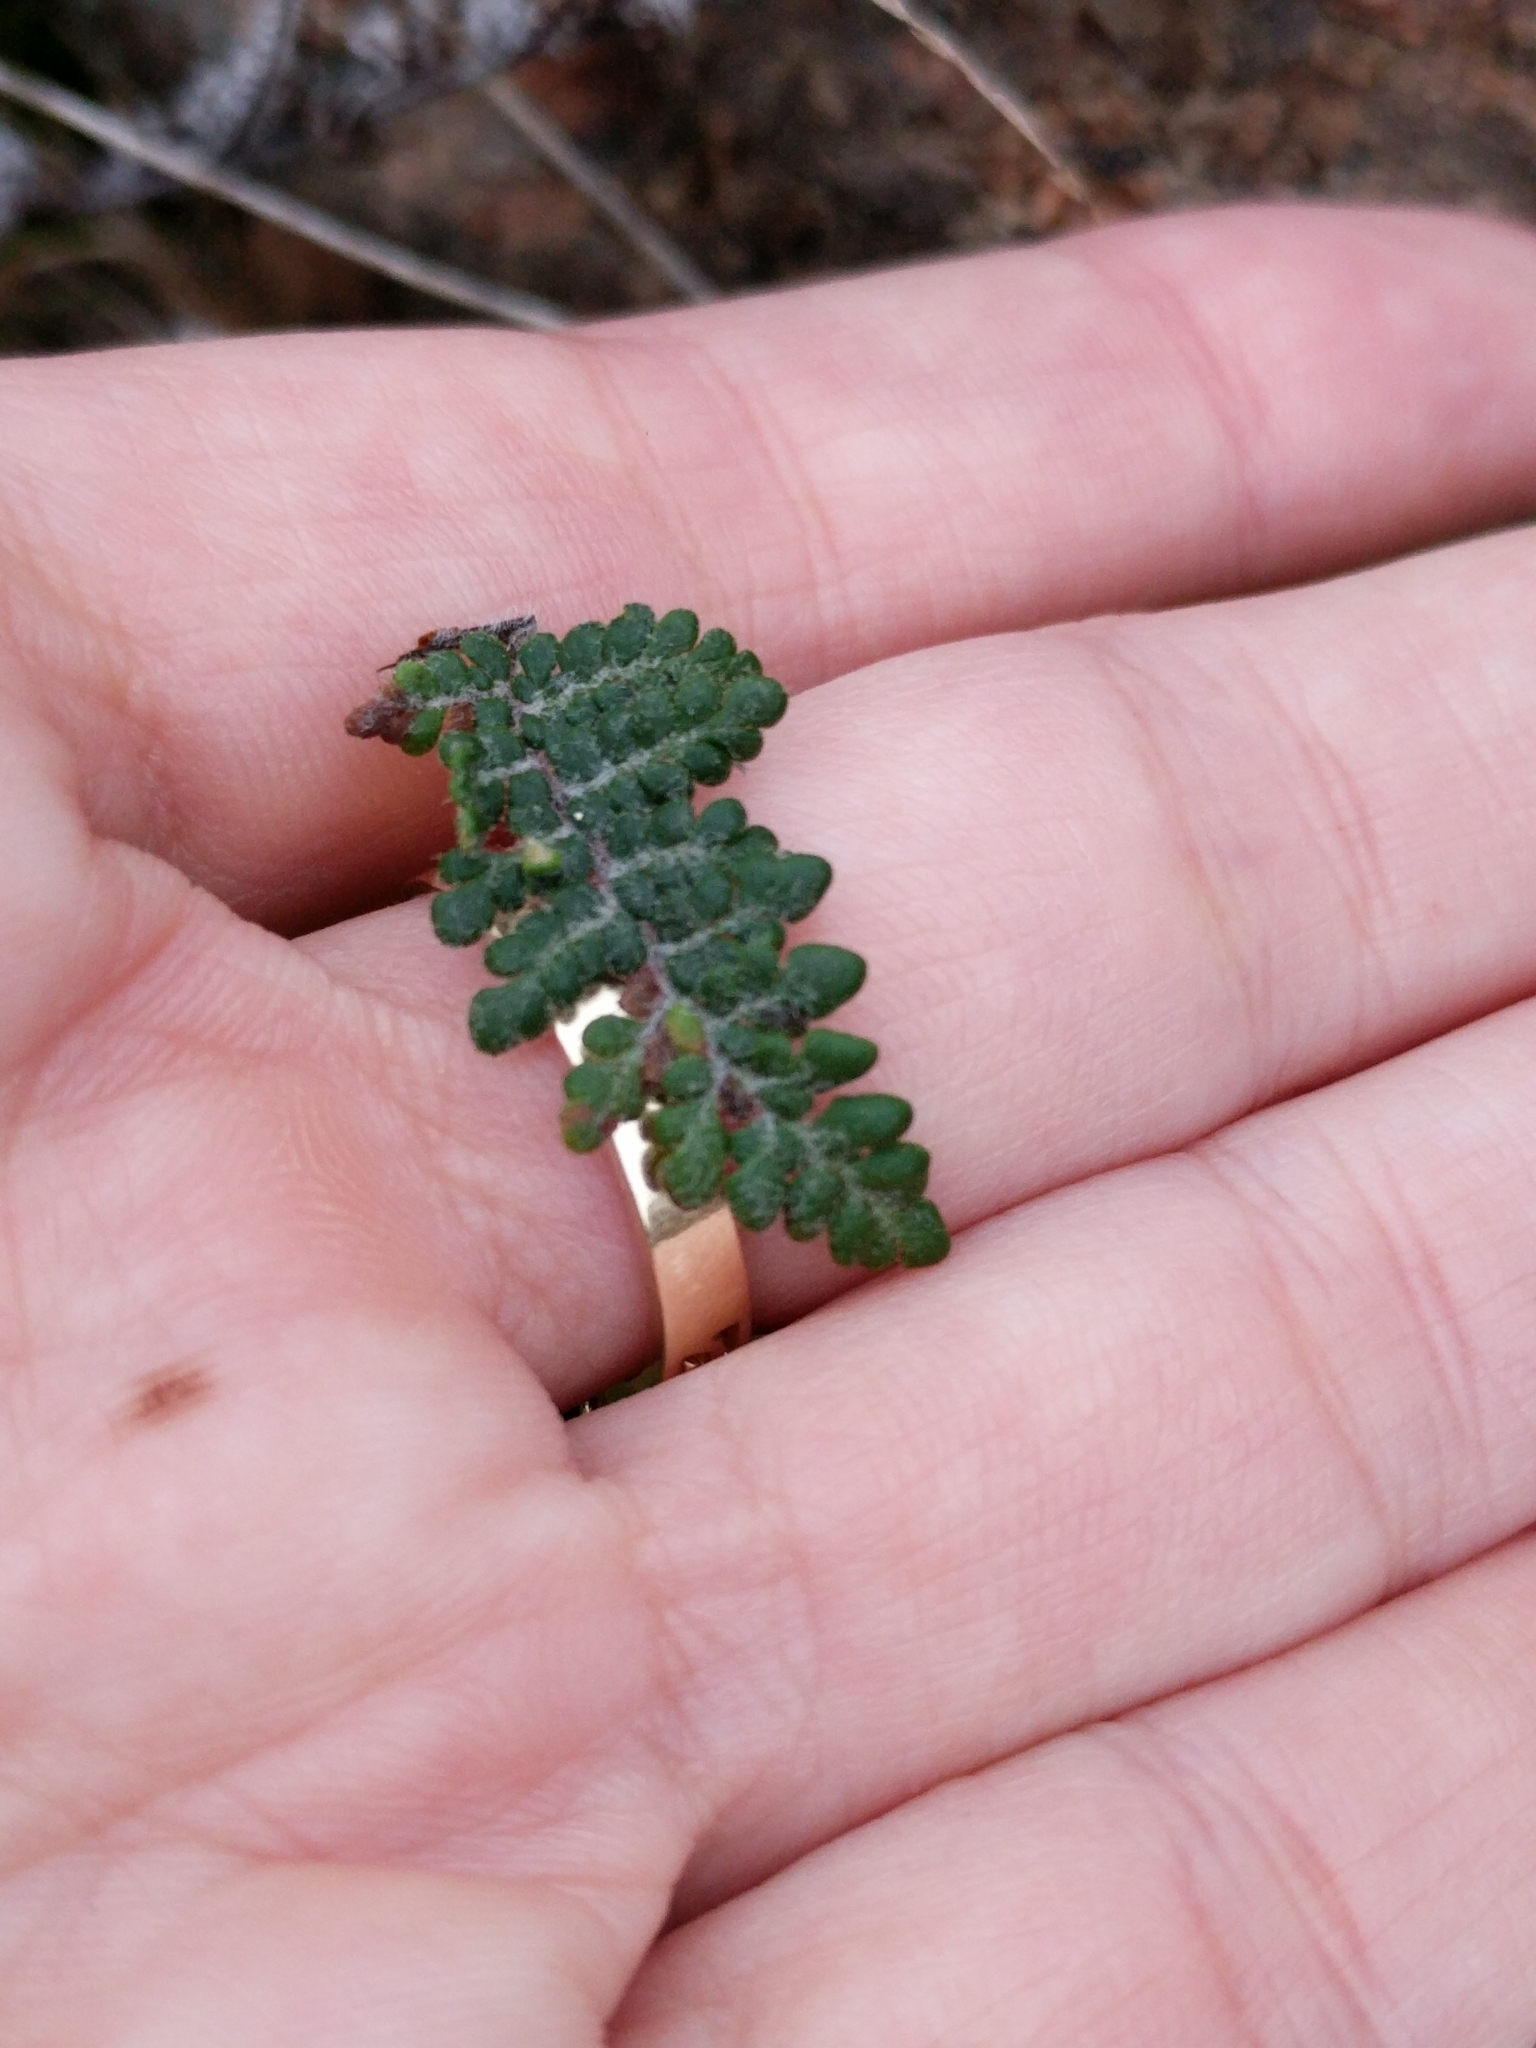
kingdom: Plantae
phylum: Tracheophyta
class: Polypodiopsida
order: Polypodiales
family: Pteridaceae
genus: Myriopteris
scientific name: Myriopteris tomentosa
